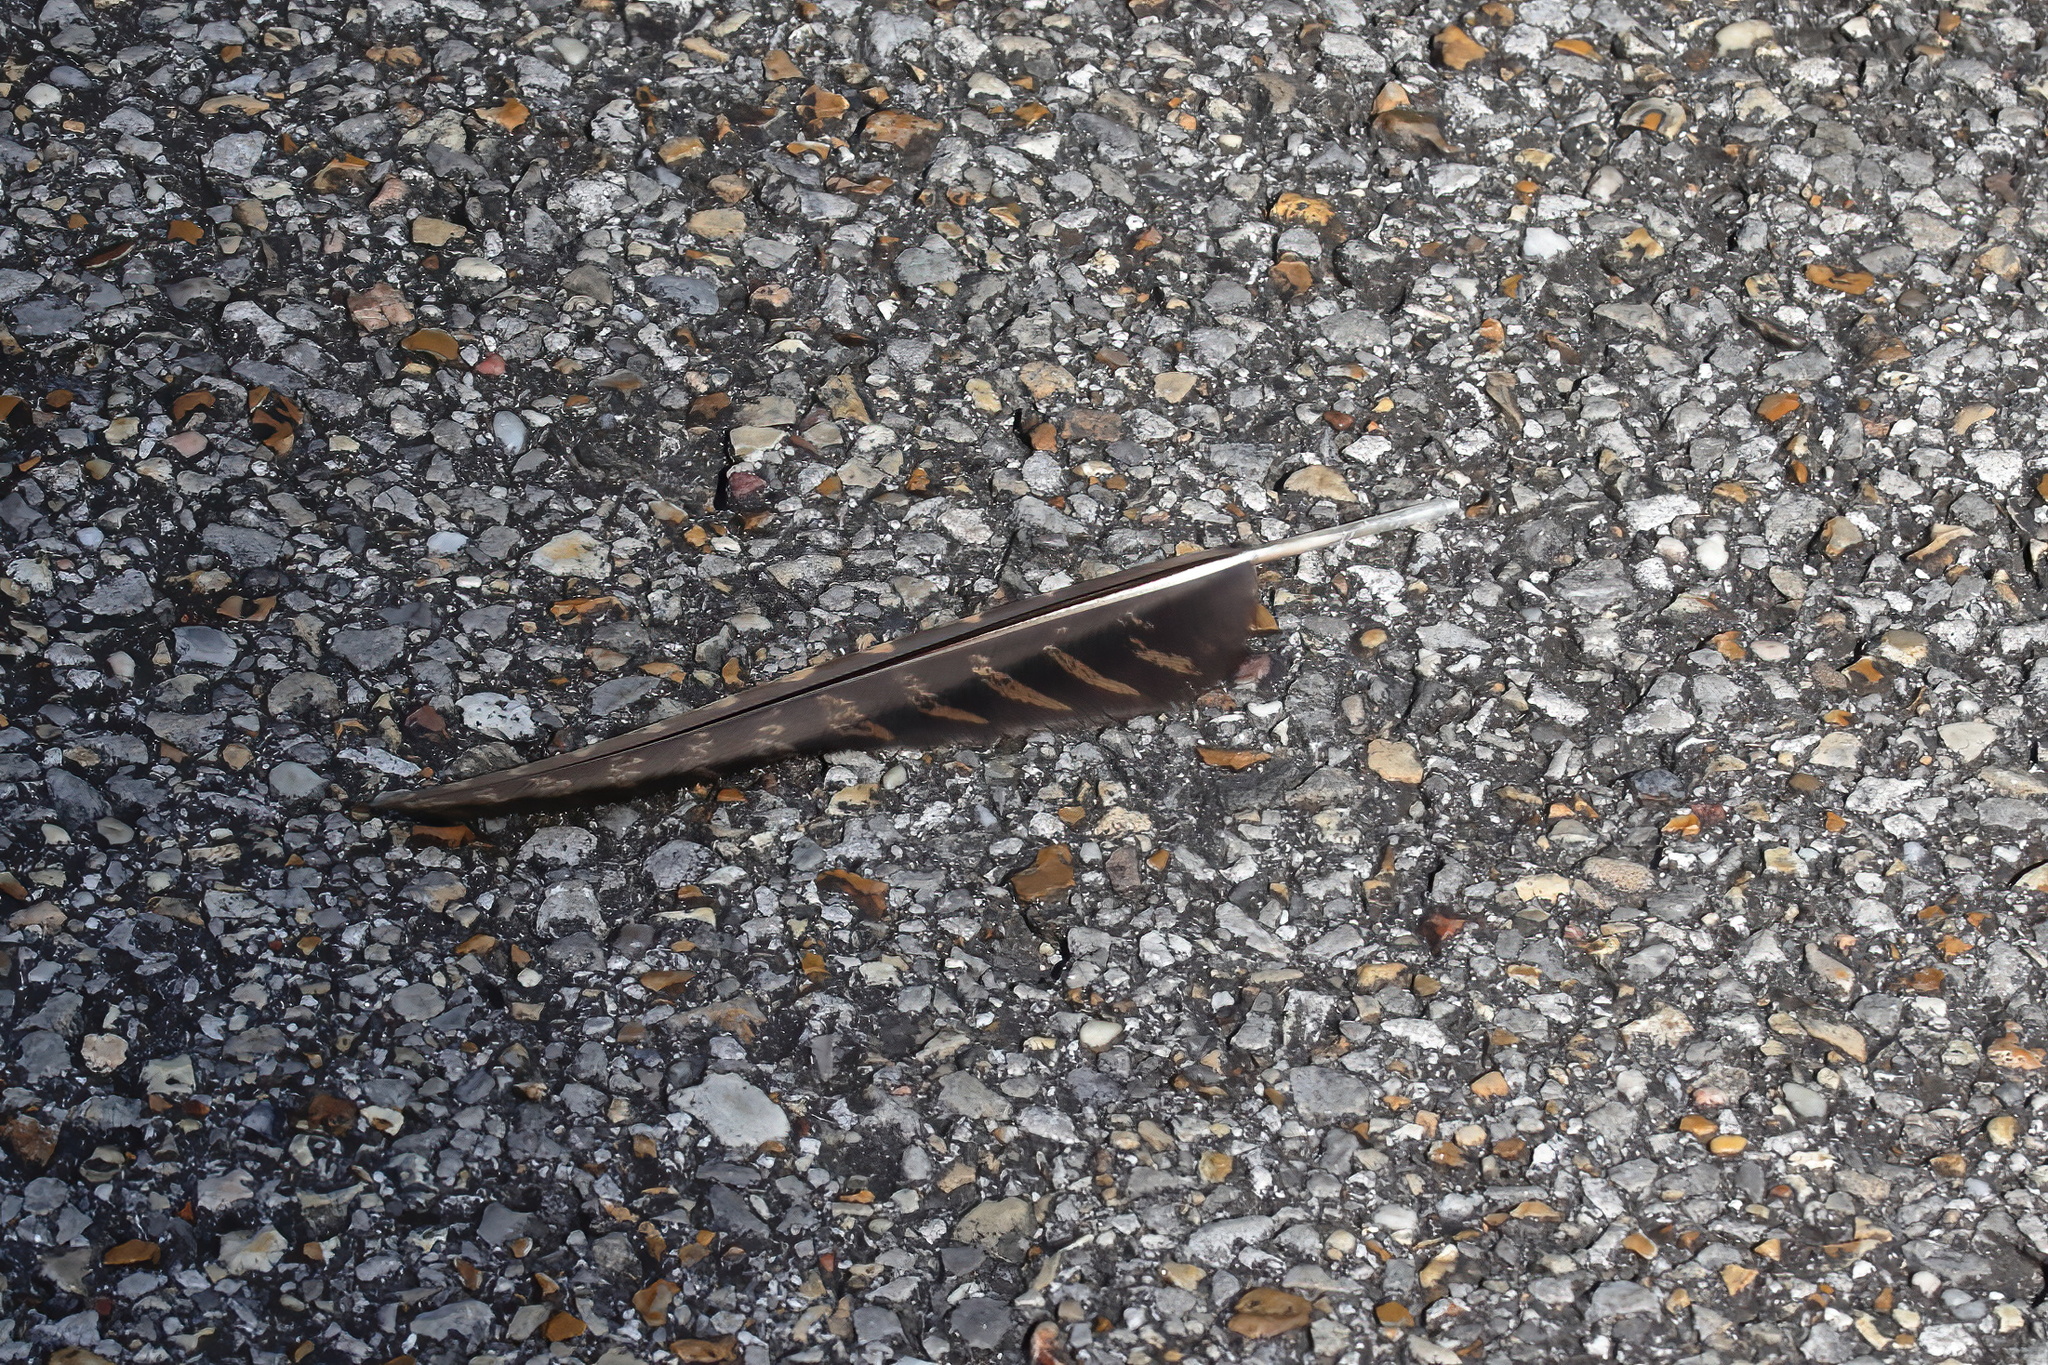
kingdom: Animalia
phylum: Chordata
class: Aves
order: Caprimulgiformes
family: Caprimulgidae
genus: Antrostomus
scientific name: Antrostomus carolinensis
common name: Chuck-will's-widow
